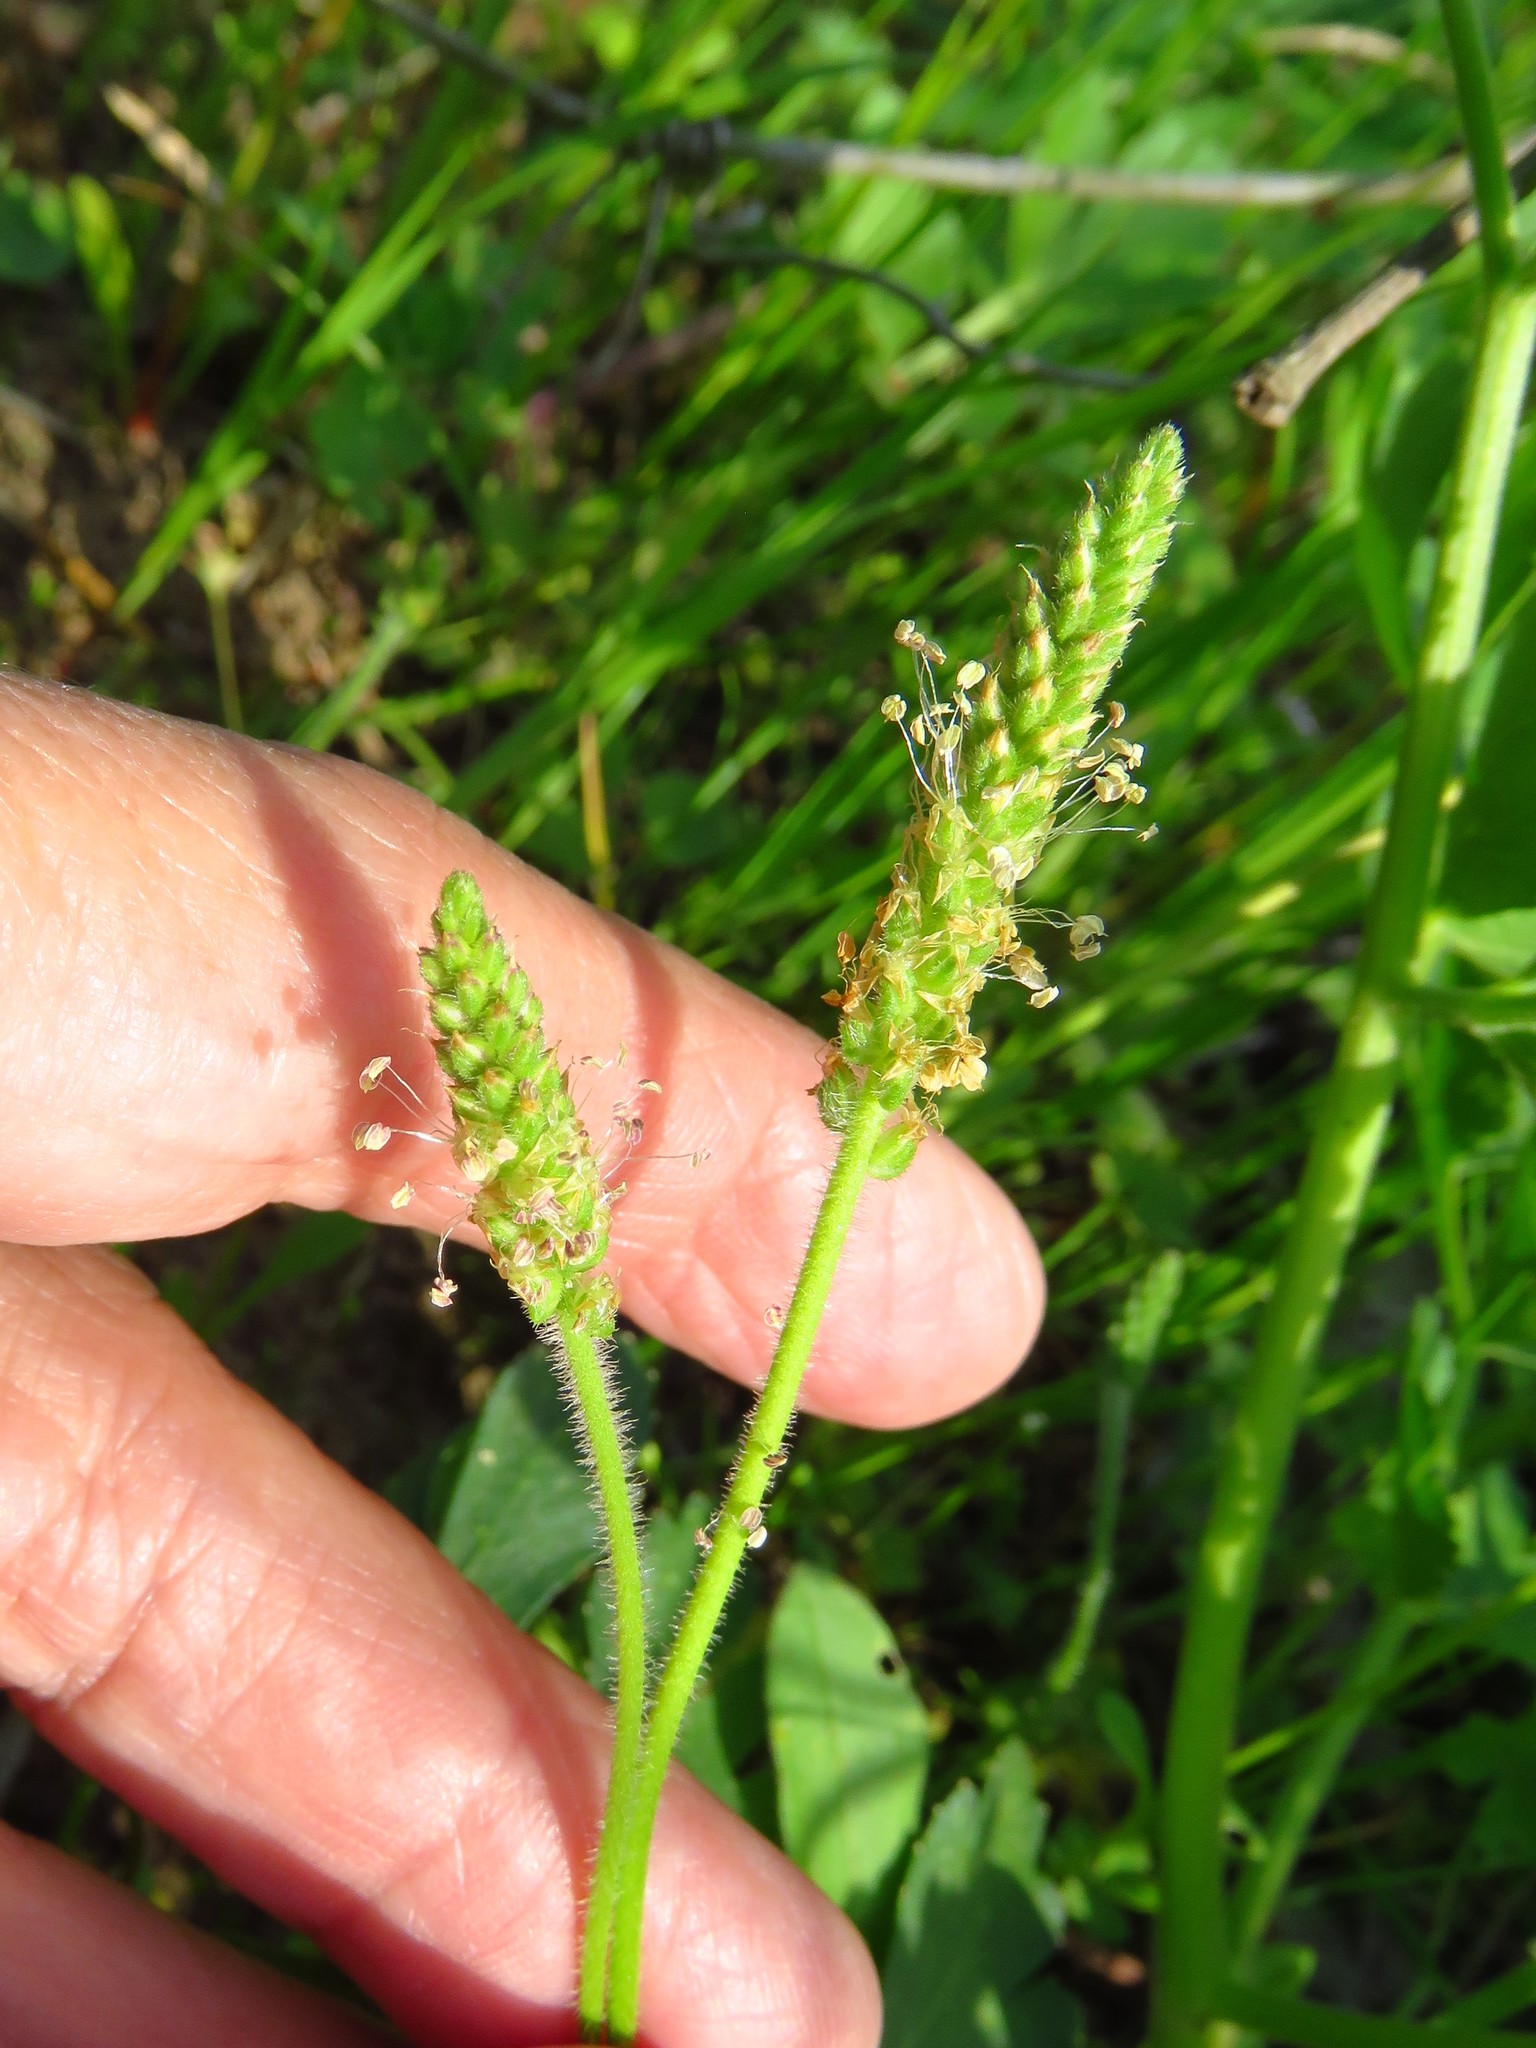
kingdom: Plantae
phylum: Tracheophyta
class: Magnoliopsida
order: Lamiales
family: Plantaginaceae
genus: Plantago
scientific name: Plantago virginica
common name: Hoary plantain
